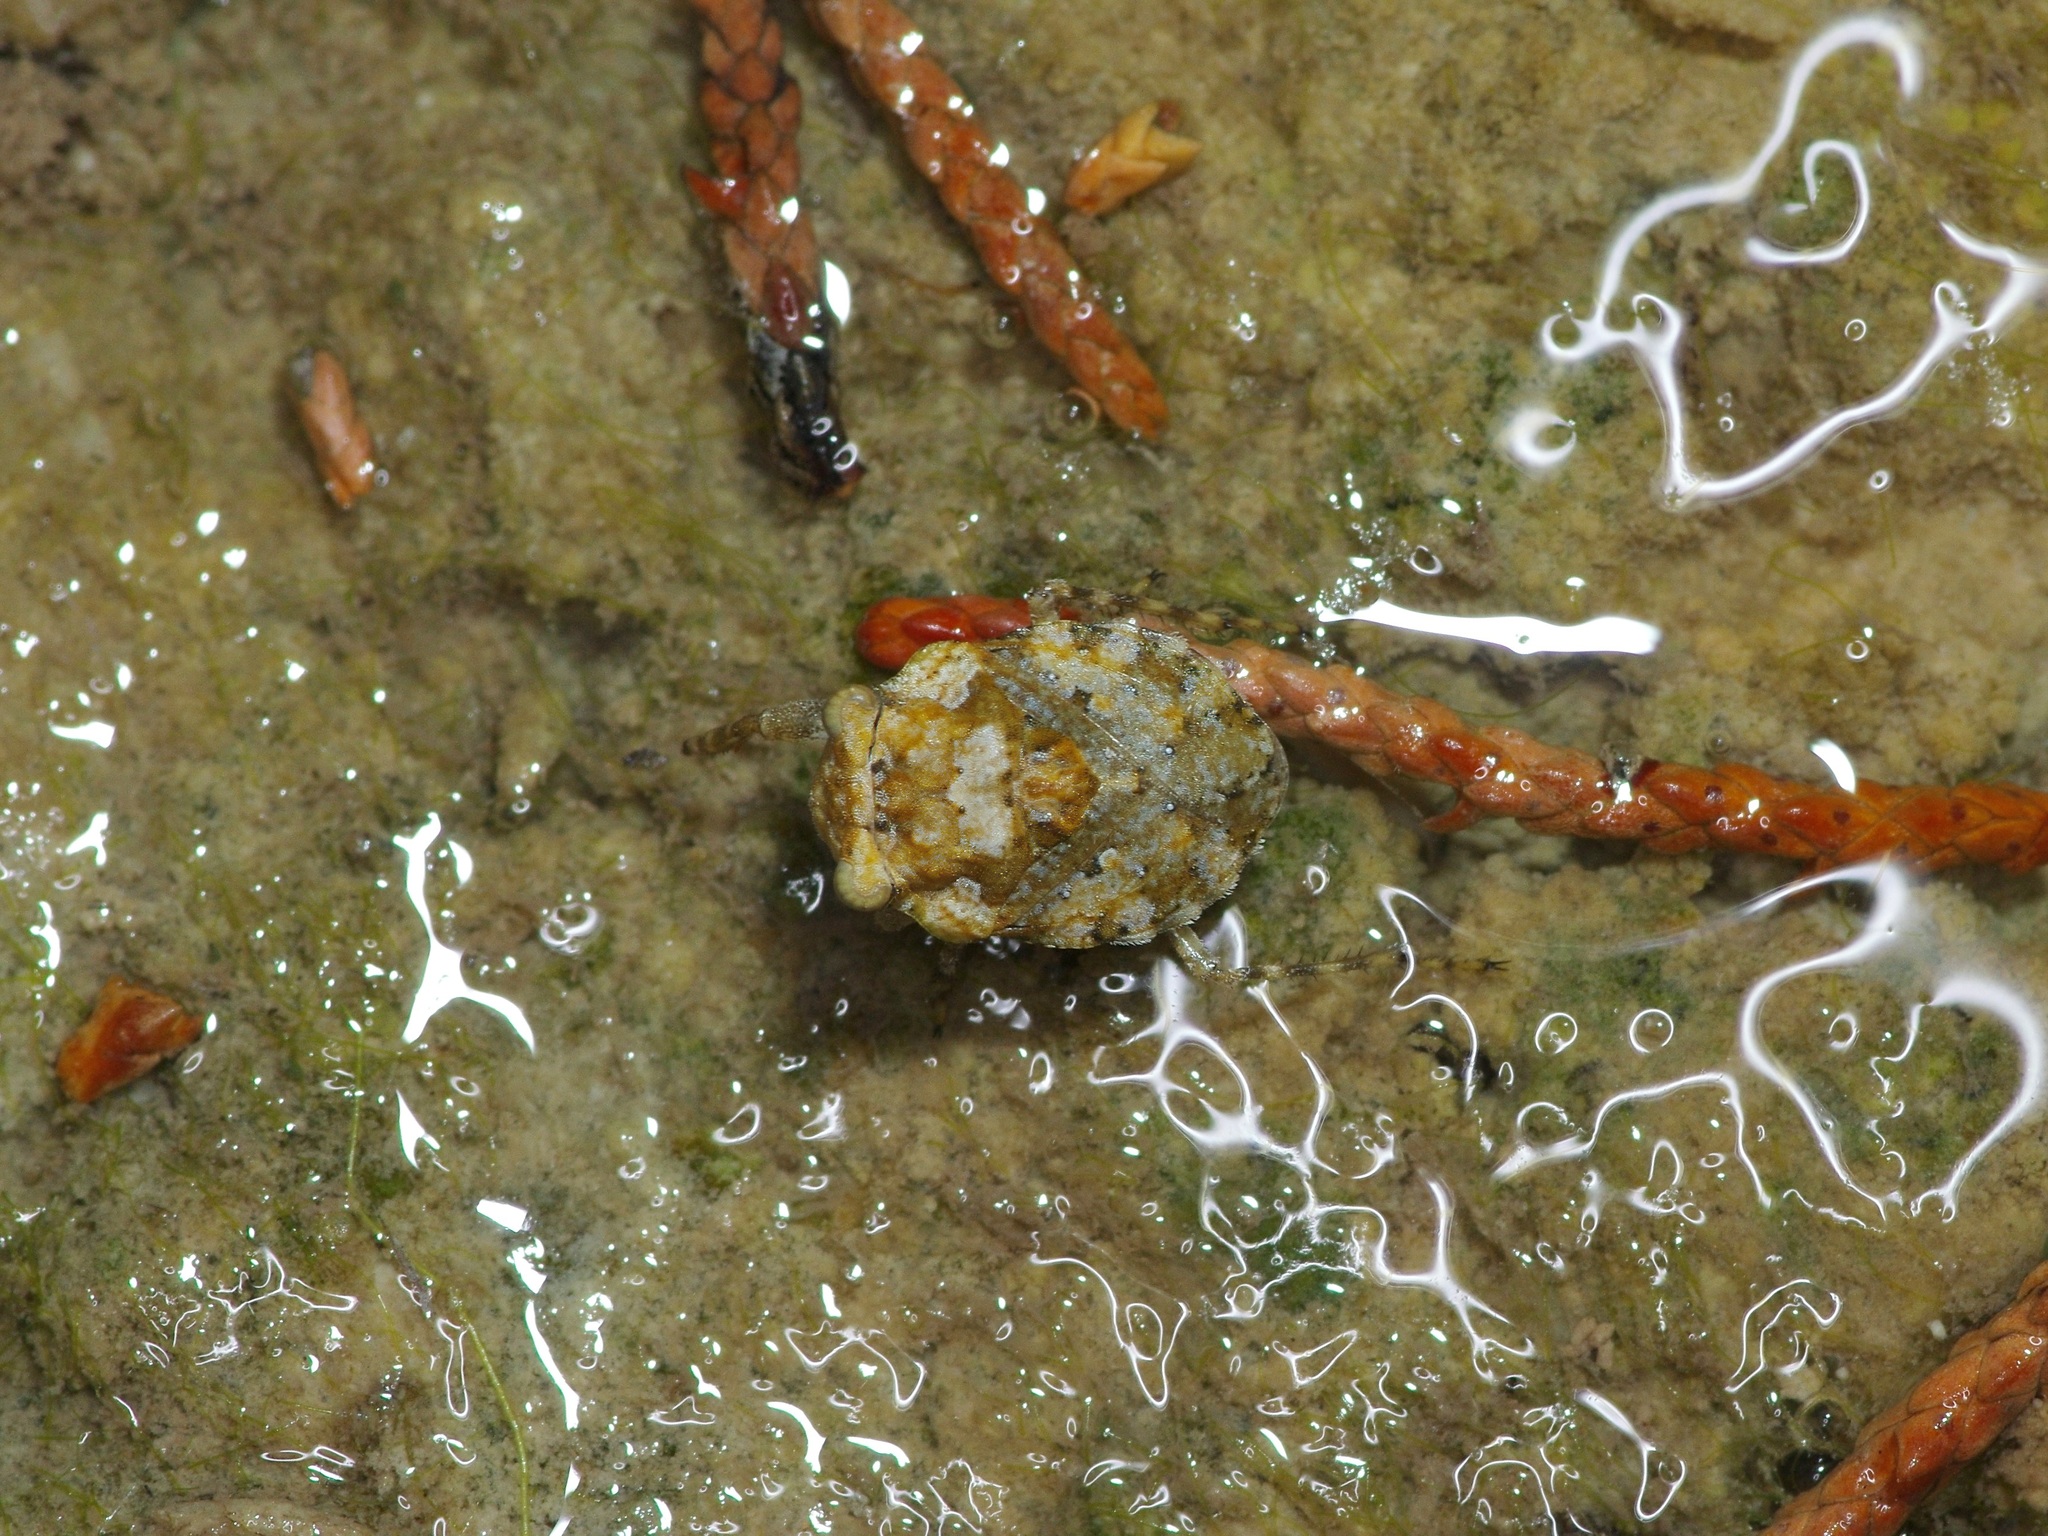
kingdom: Animalia
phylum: Arthropoda
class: Insecta
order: Hemiptera
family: Gelastocoridae
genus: Gelastocoris
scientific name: Gelastocoris rotundatus
